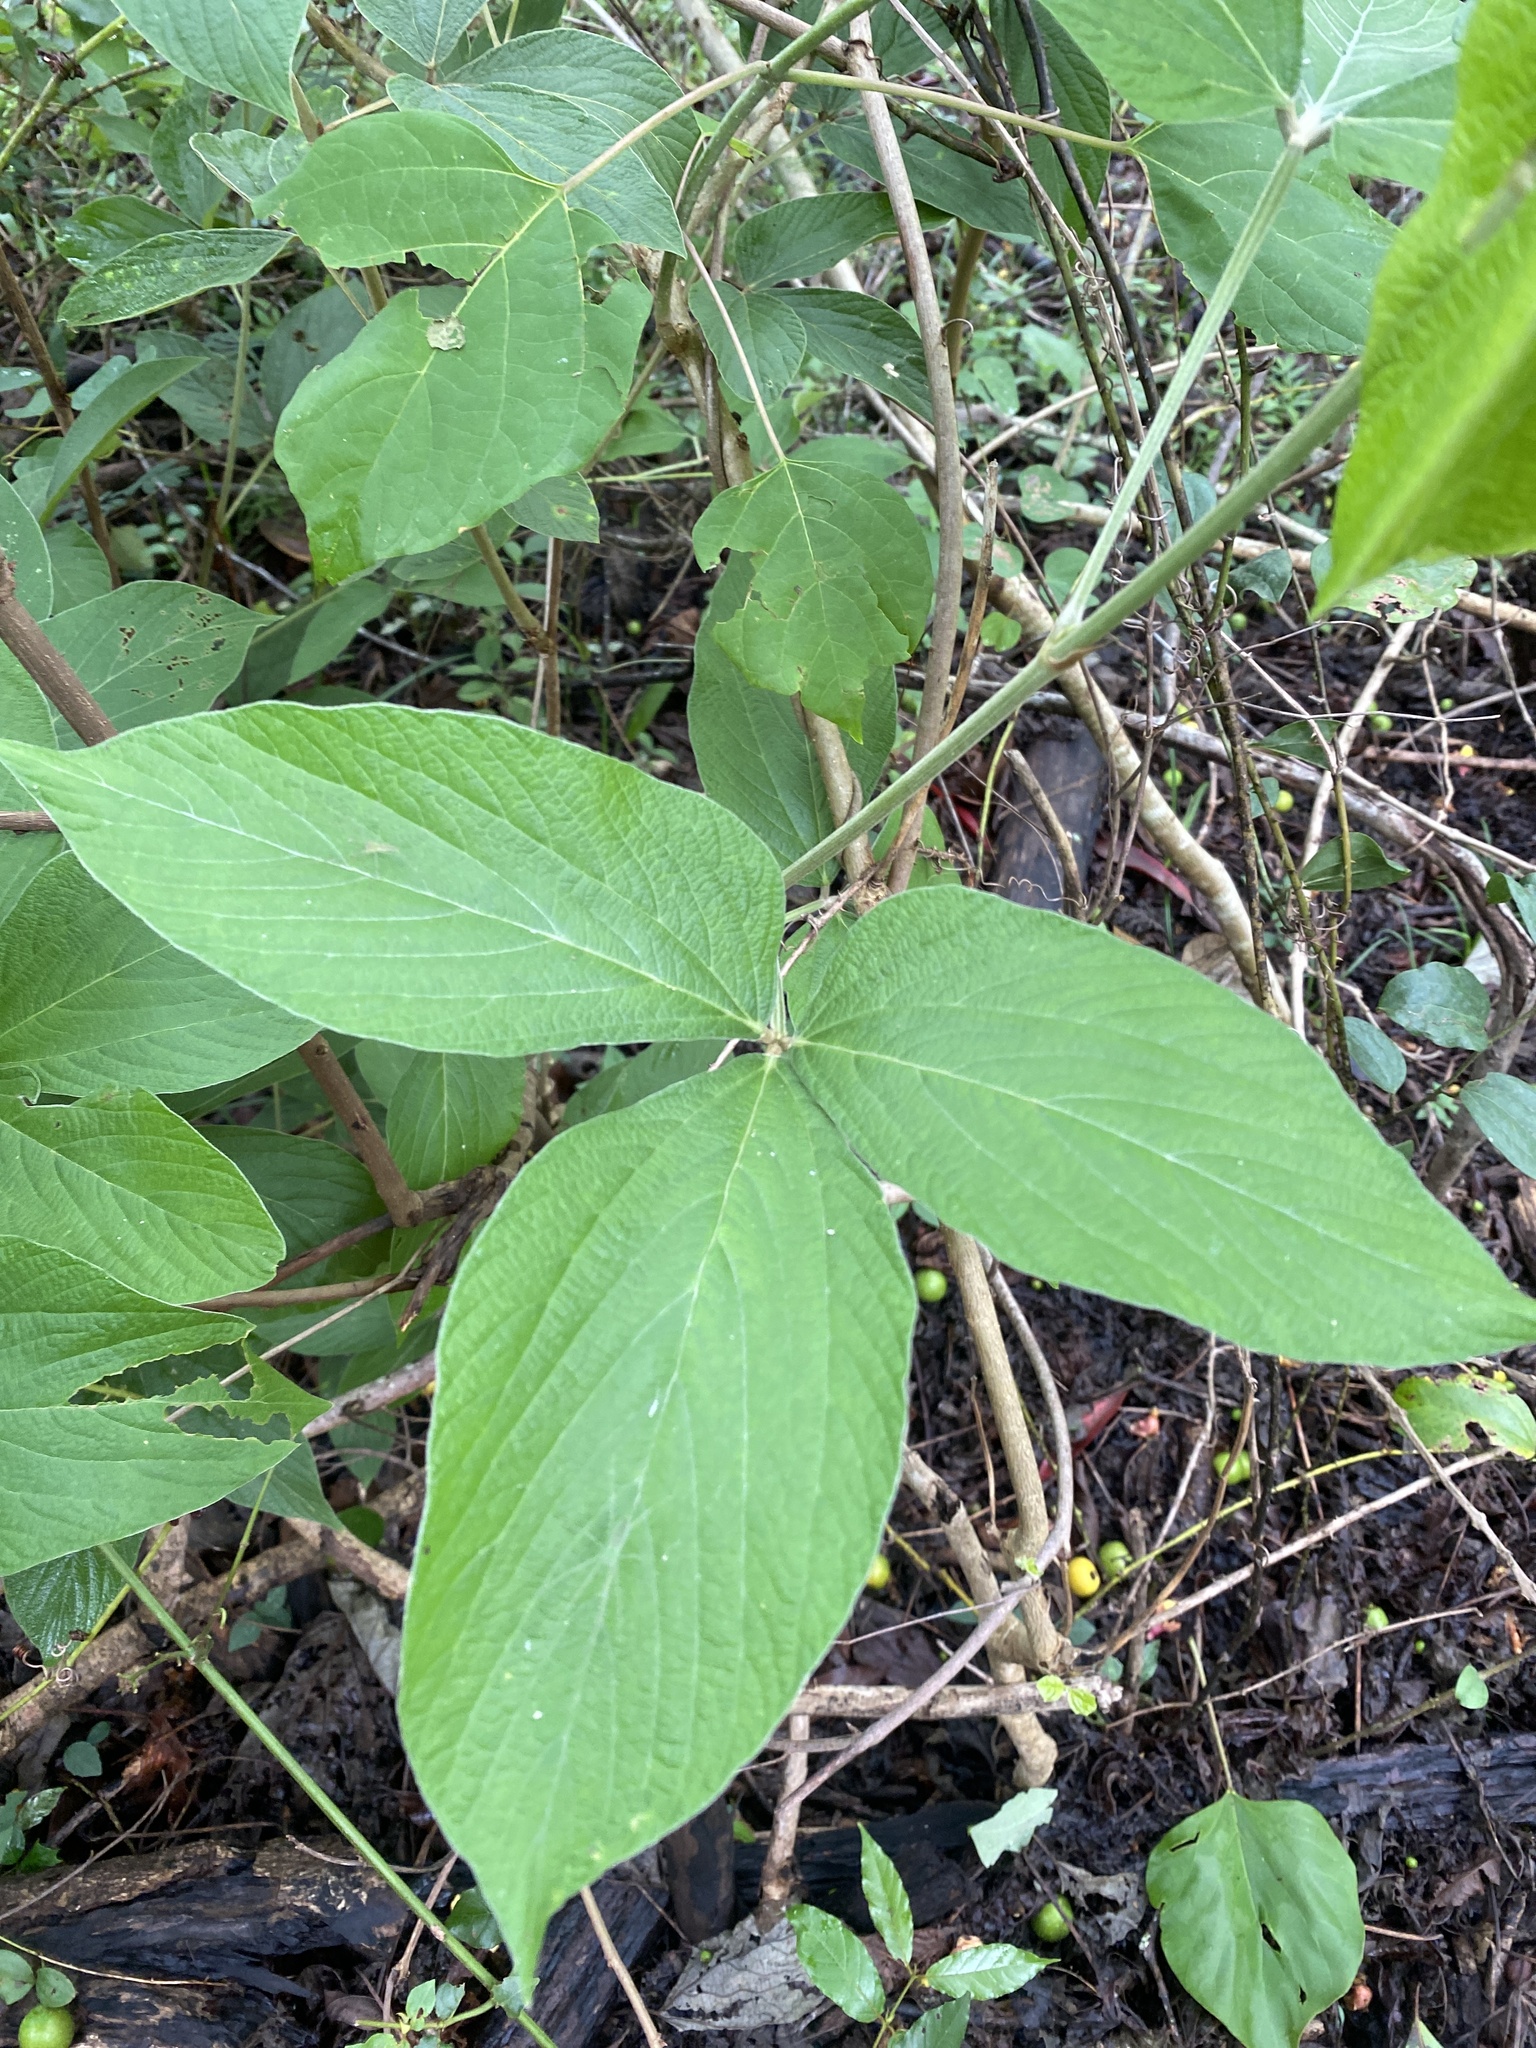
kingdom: Plantae
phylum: Tracheophyta
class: Magnoliopsida
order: Fabales
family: Fabaceae
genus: Flemingia
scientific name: Flemingia grahamiana
